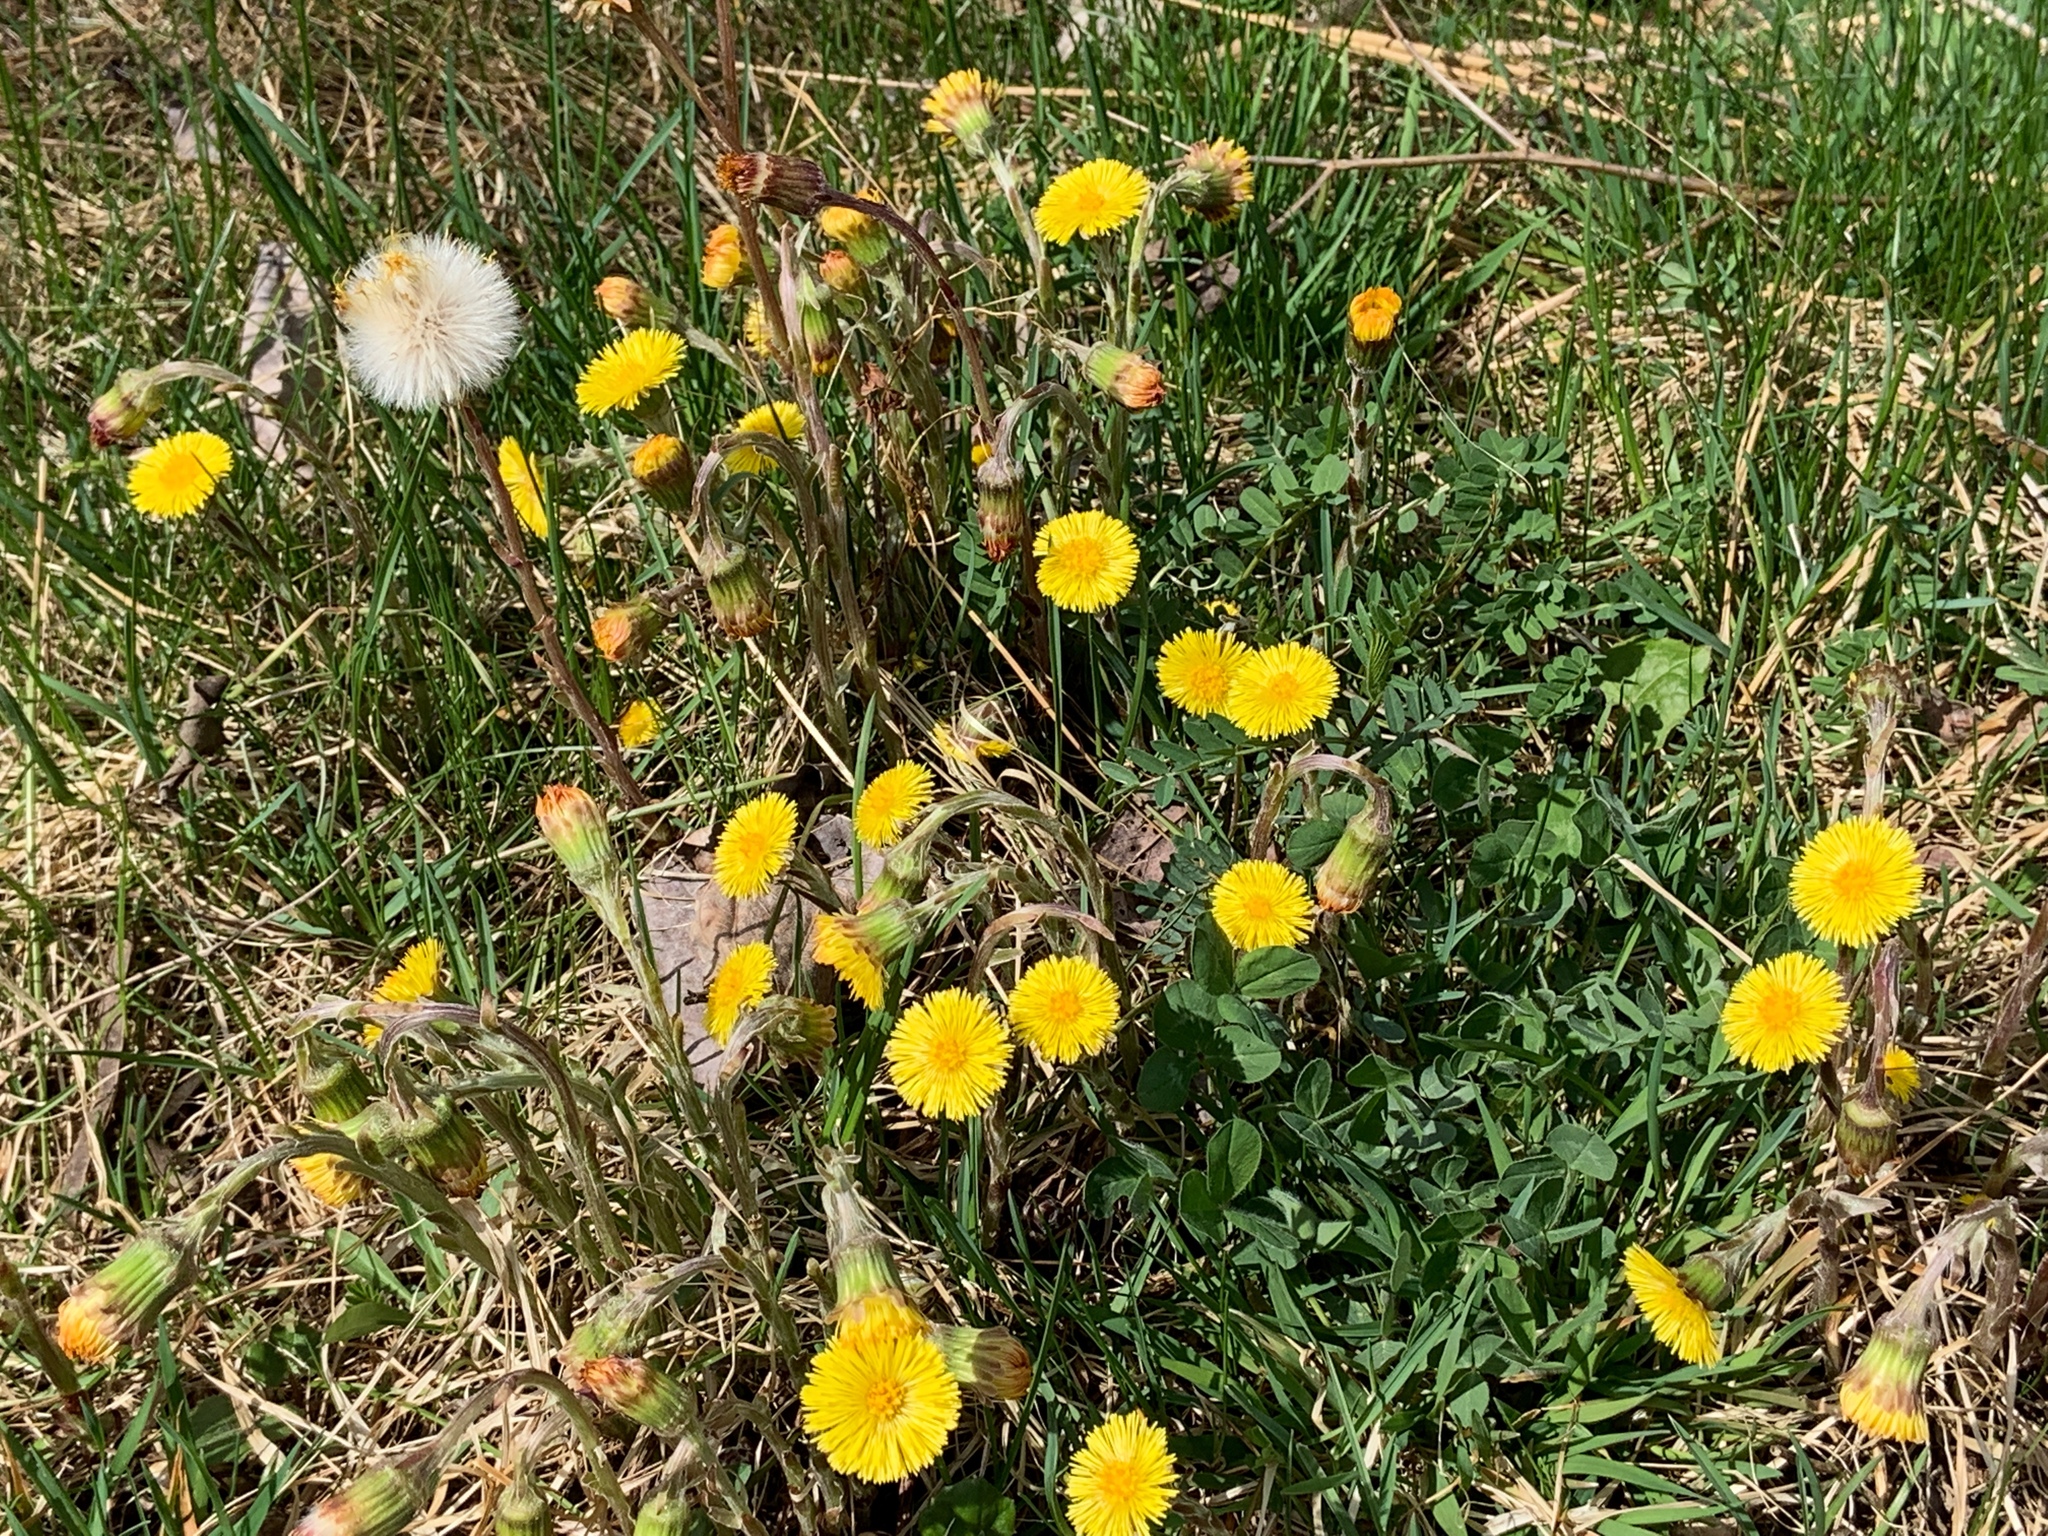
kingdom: Plantae
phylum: Tracheophyta
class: Magnoliopsida
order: Asterales
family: Asteraceae
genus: Tussilago
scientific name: Tussilago farfara
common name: Coltsfoot
